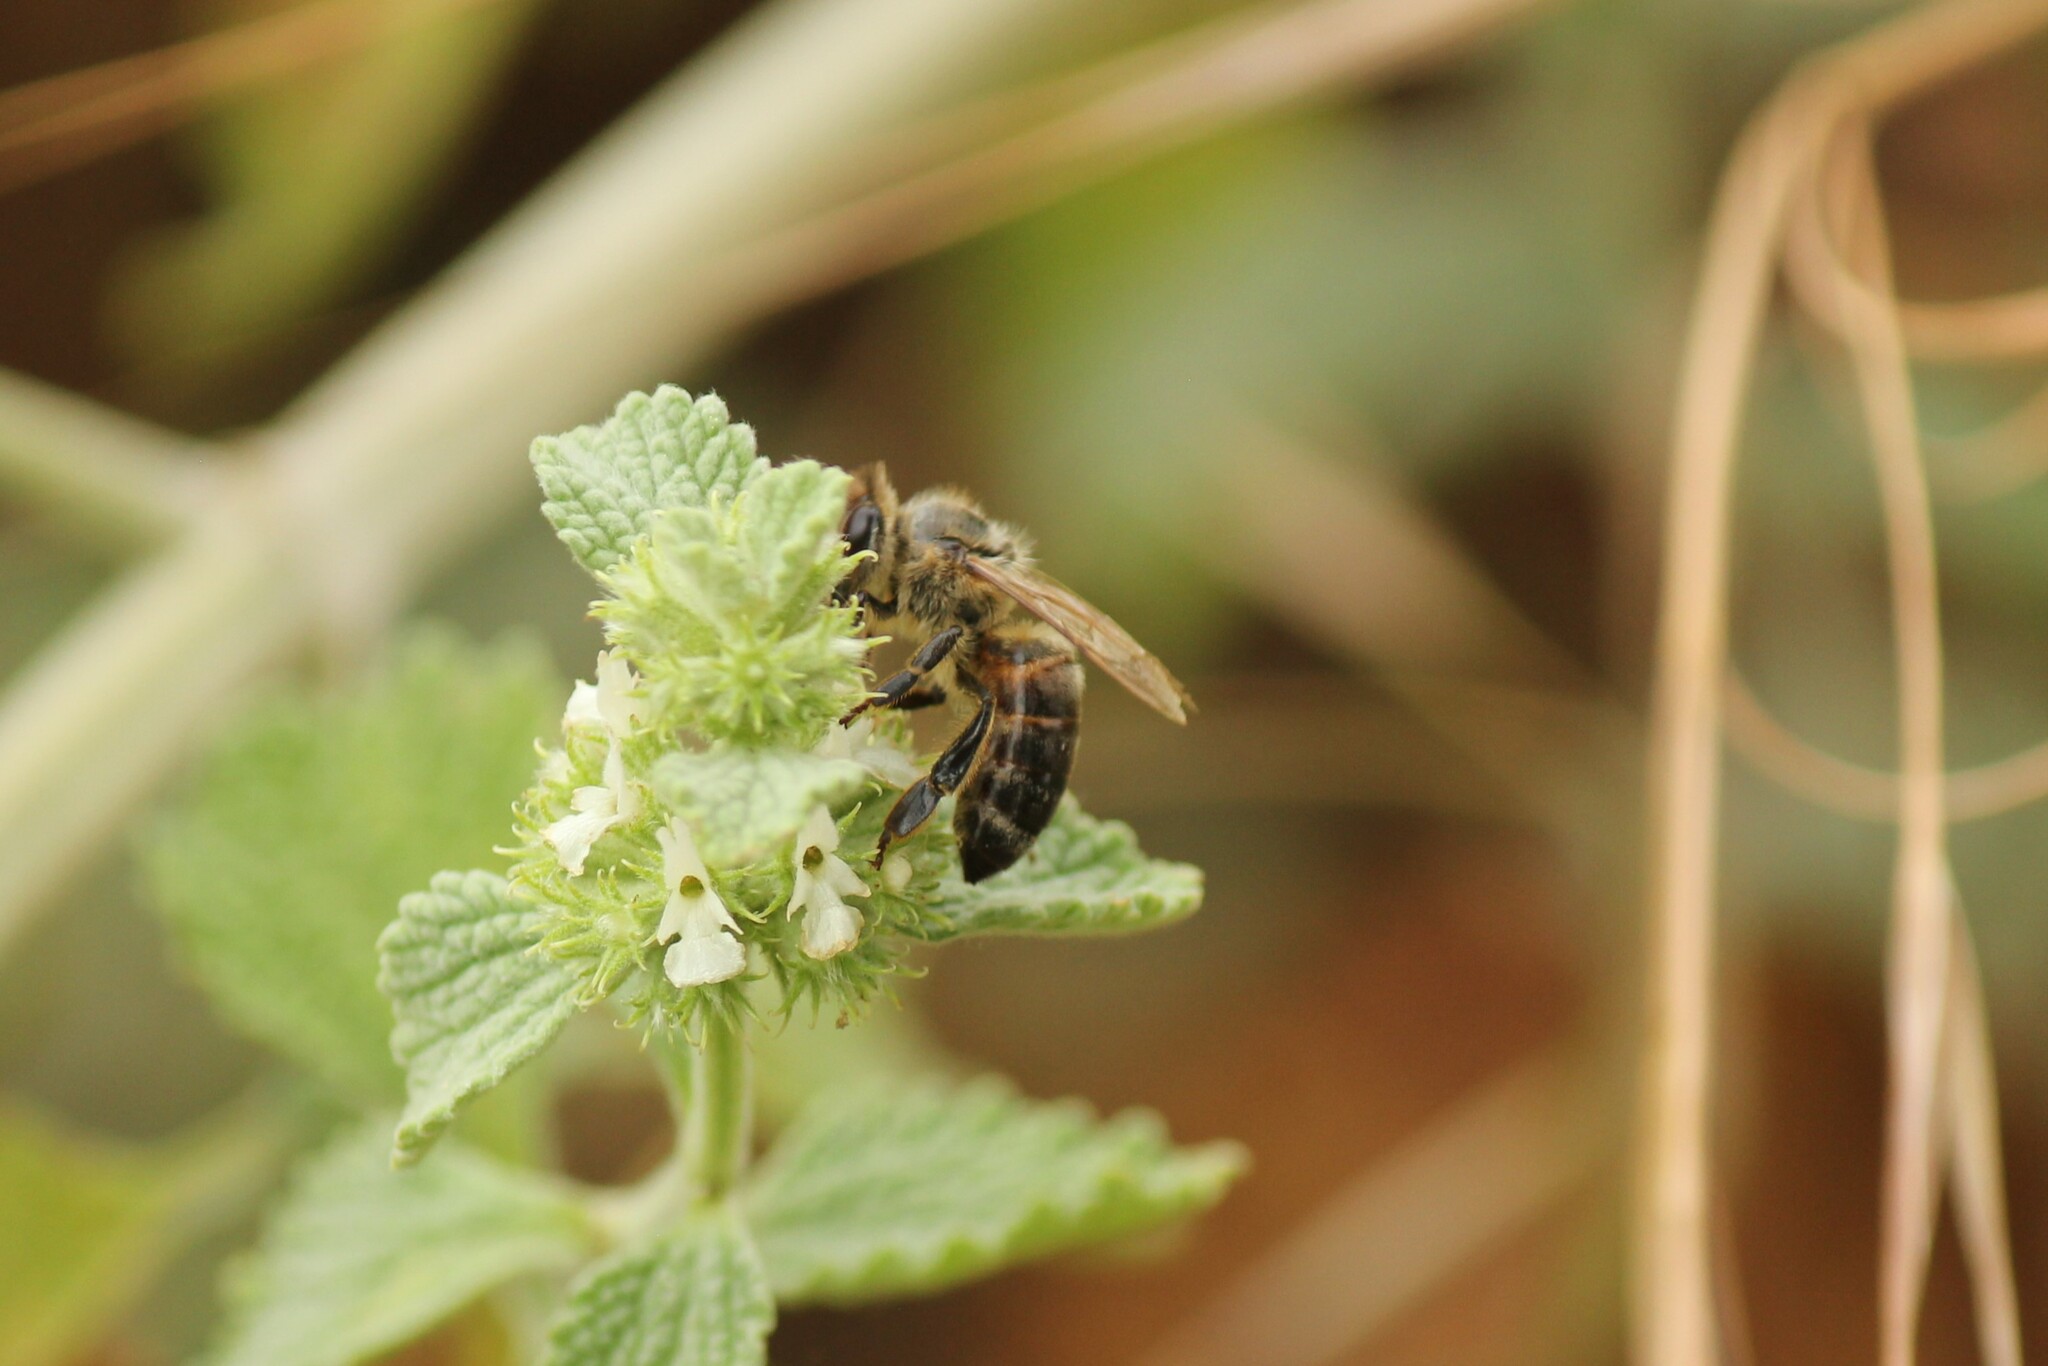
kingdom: Animalia
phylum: Arthropoda
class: Insecta
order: Hymenoptera
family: Apidae
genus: Apis
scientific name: Apis mellifera
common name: Honey bee
